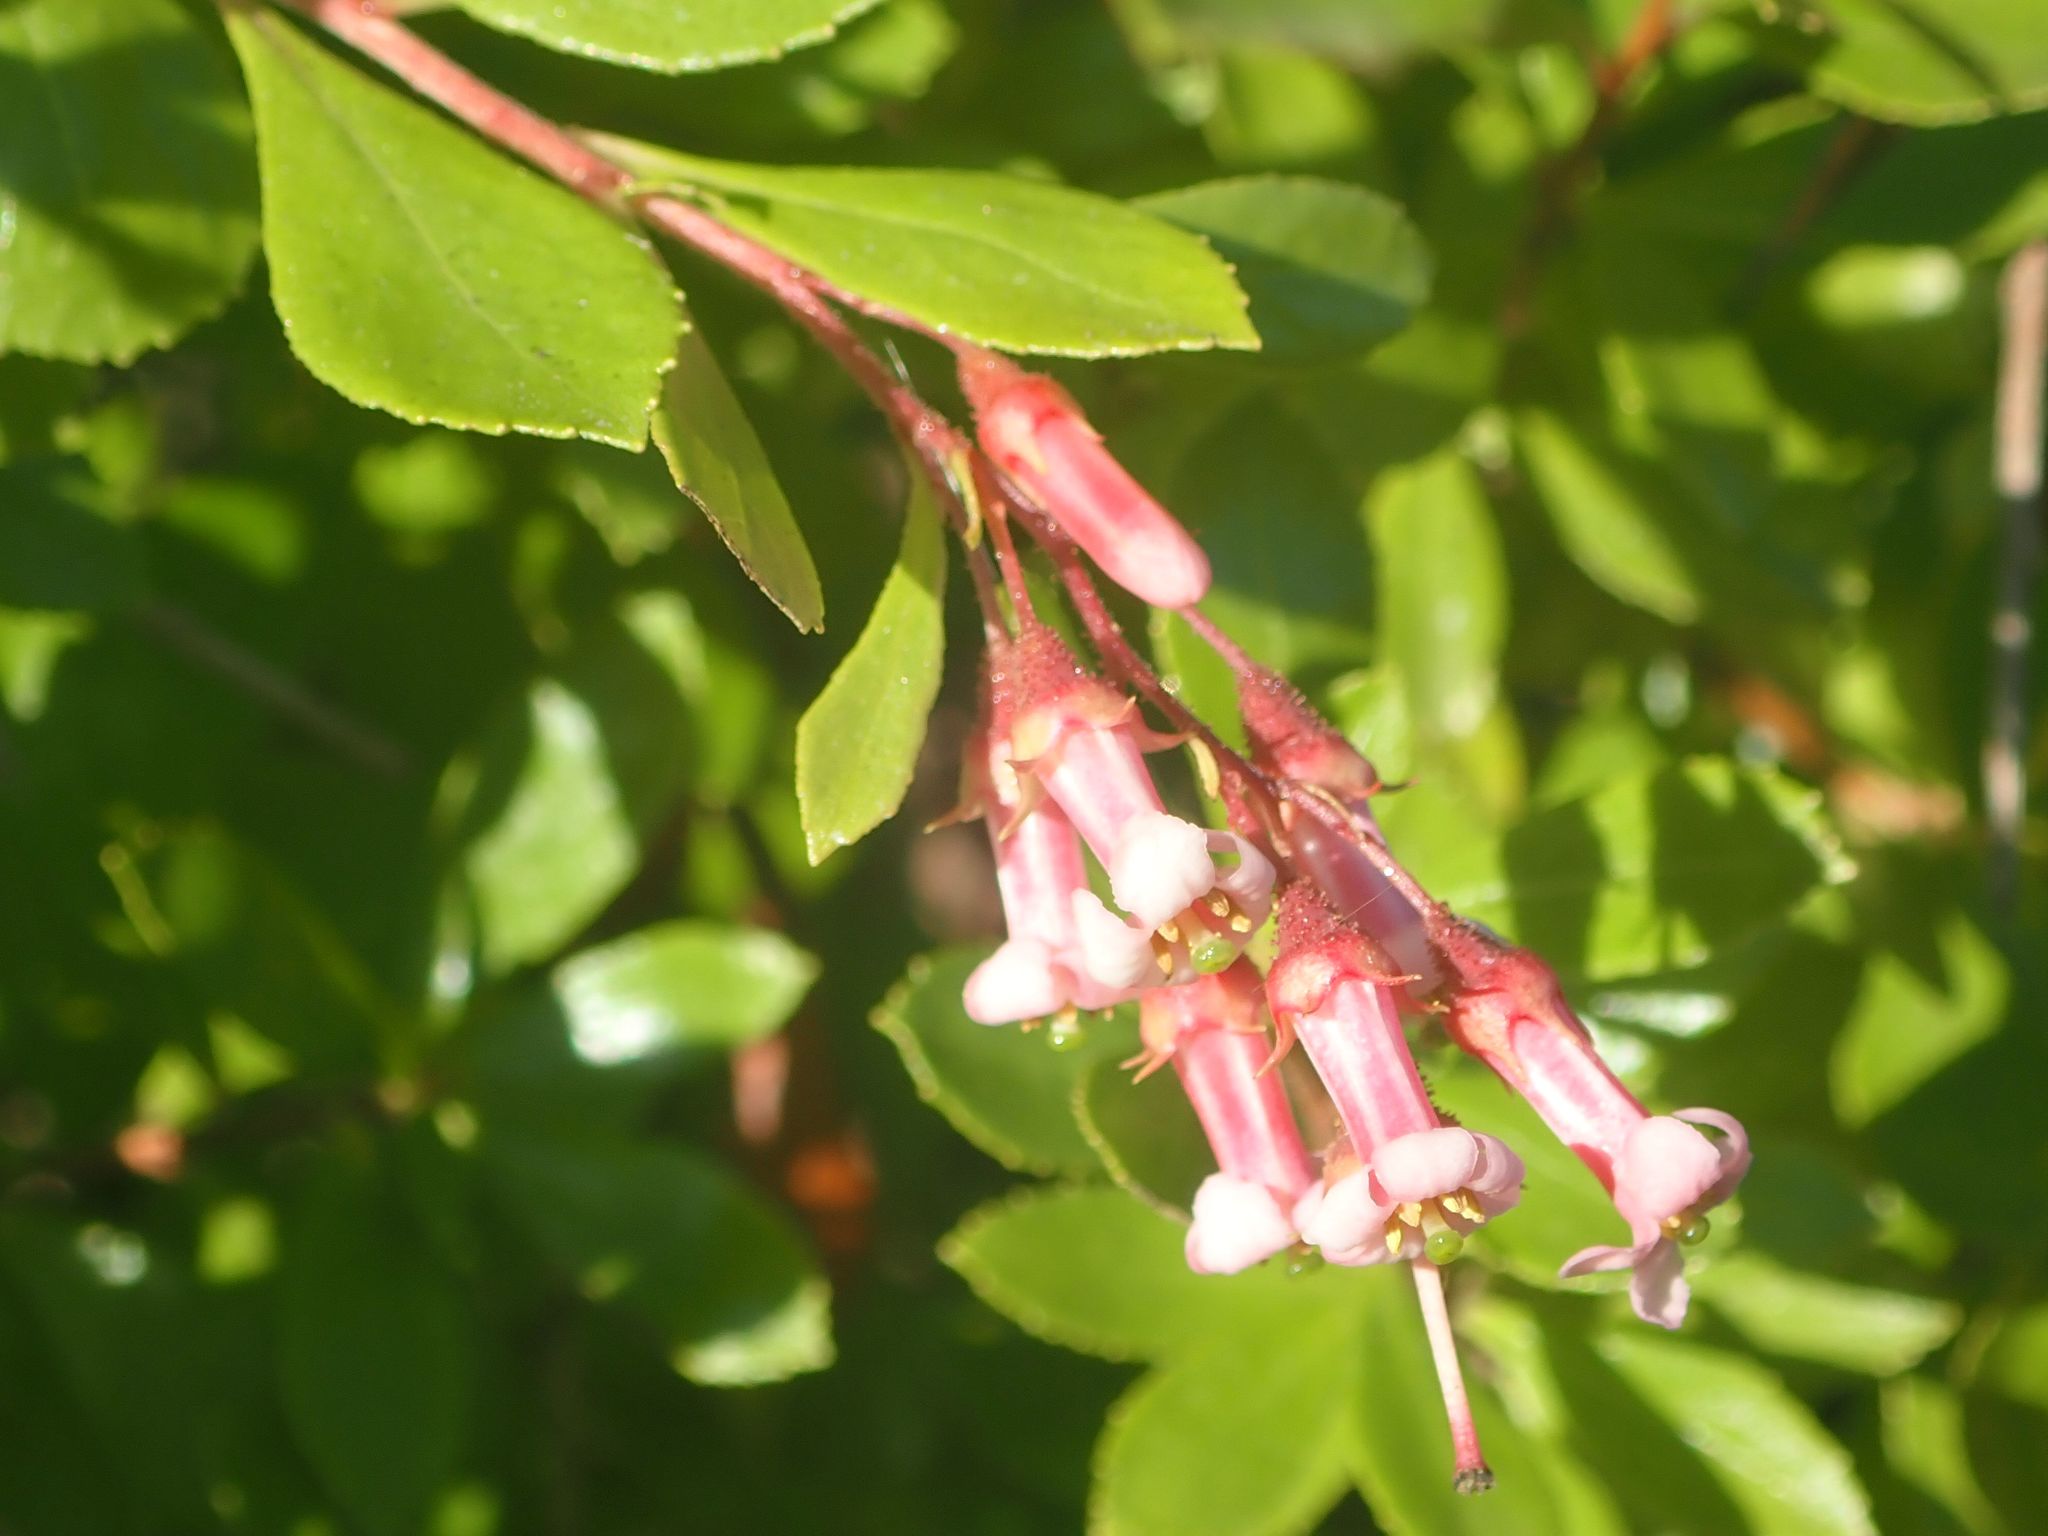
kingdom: Plantae
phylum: Tracheophyta
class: Magnoliopsida
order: Escalloniales
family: Escalloniaceae
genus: Escallonia
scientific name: Escallonia rubra
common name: Redclaws
